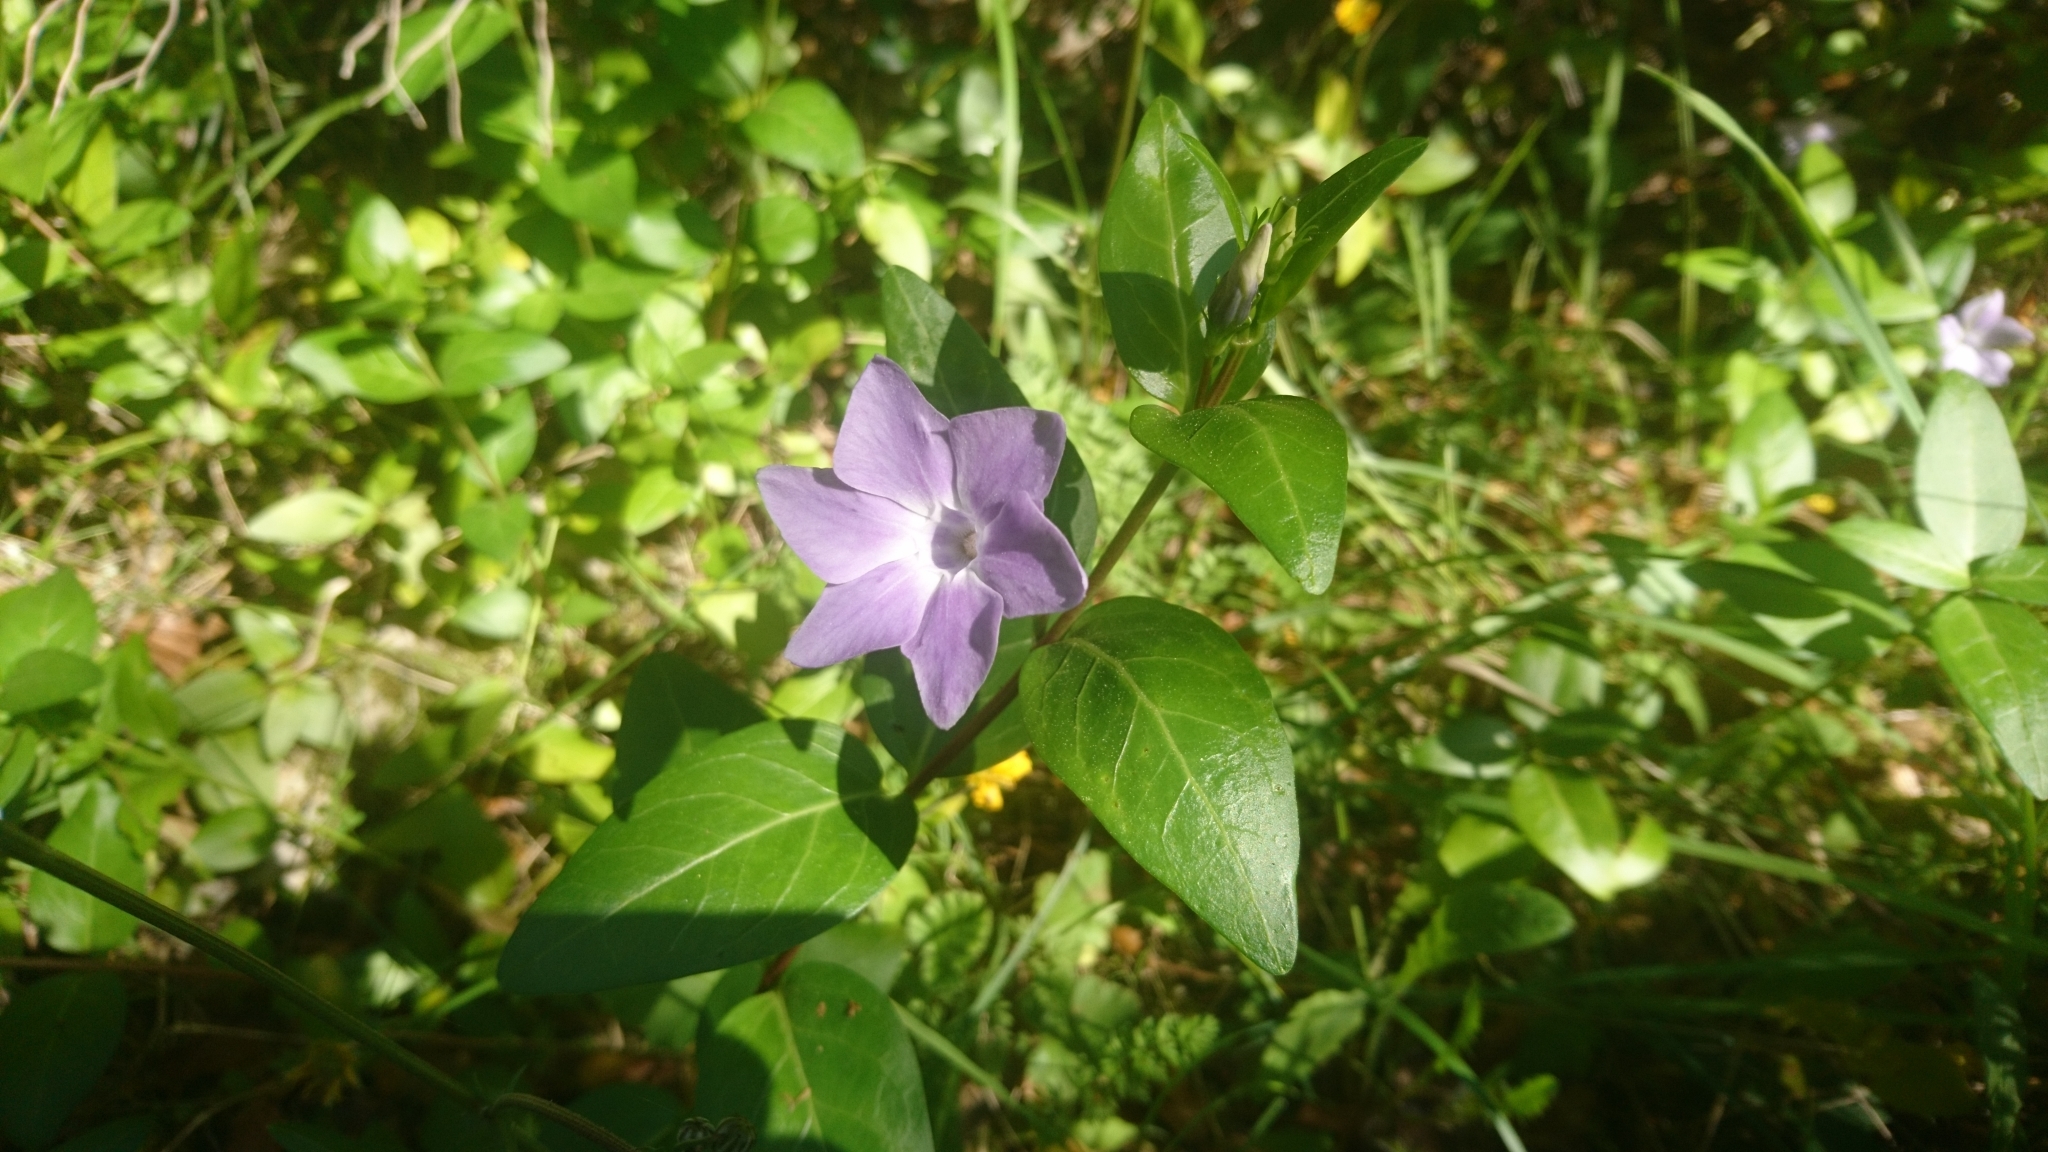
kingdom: Plantae
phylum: Tracheophyta
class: Magnoliopsida
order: Gentianales
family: Apocynaceae
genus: Vinca
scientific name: Vinca difformis
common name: Intermediate periwinkle
